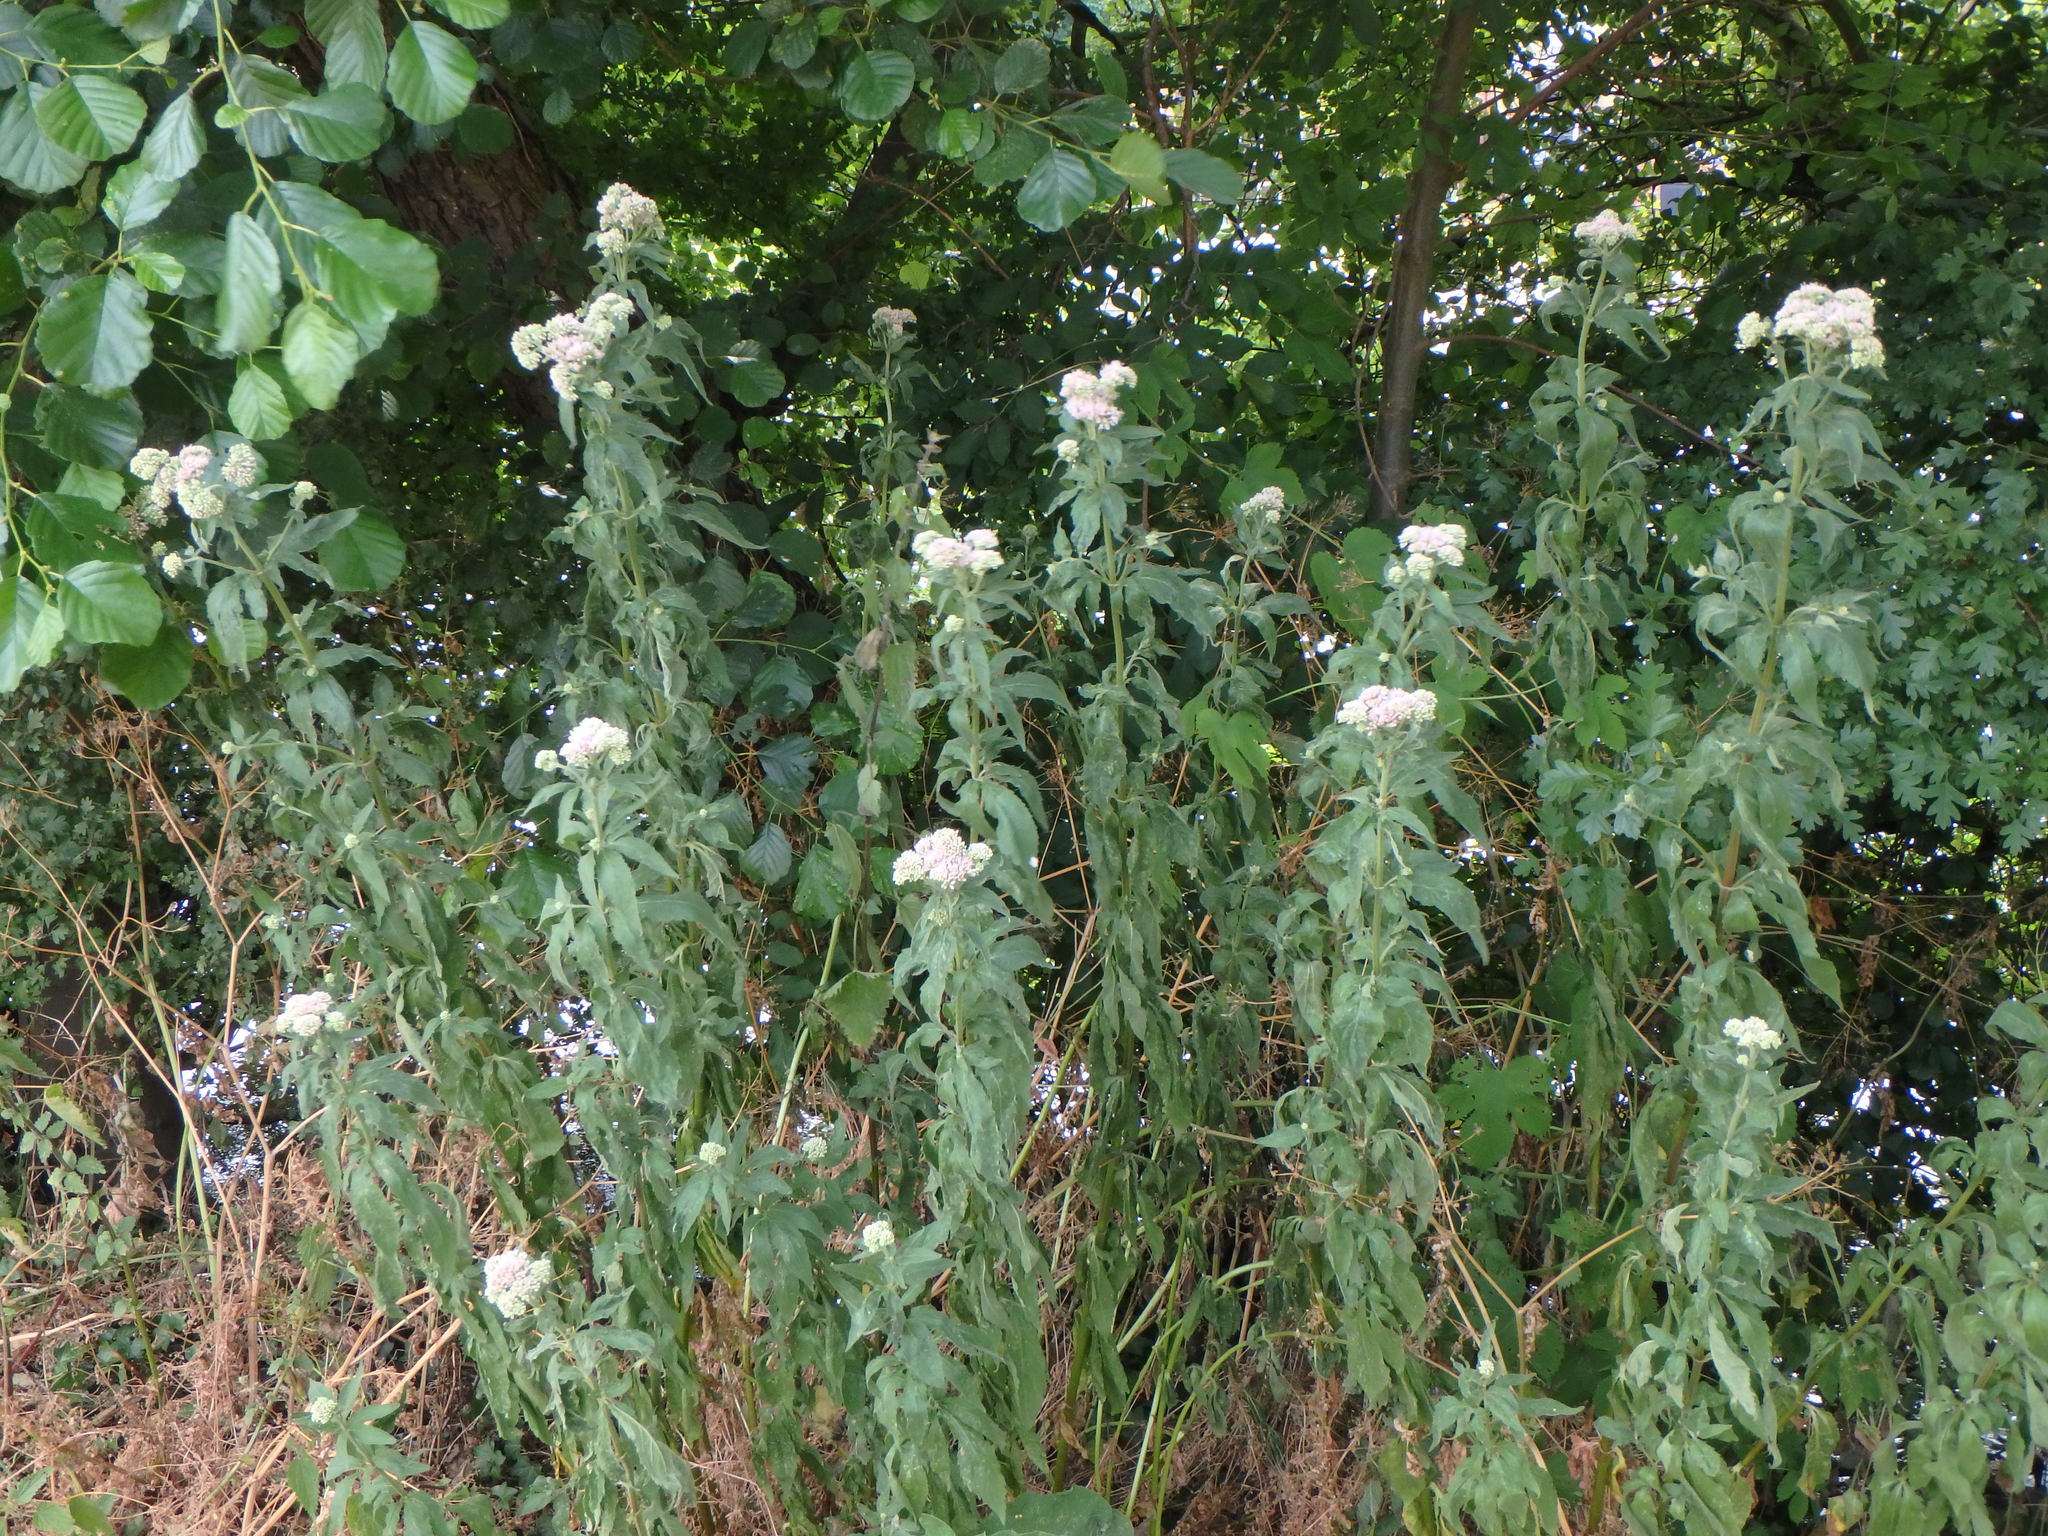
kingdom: Plantae
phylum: Tracheophyta
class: Magnoliopsida
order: Asterales
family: Asteraceae
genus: Eupatorium
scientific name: Eupatorium cannabinum
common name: Hemp-agrimony
